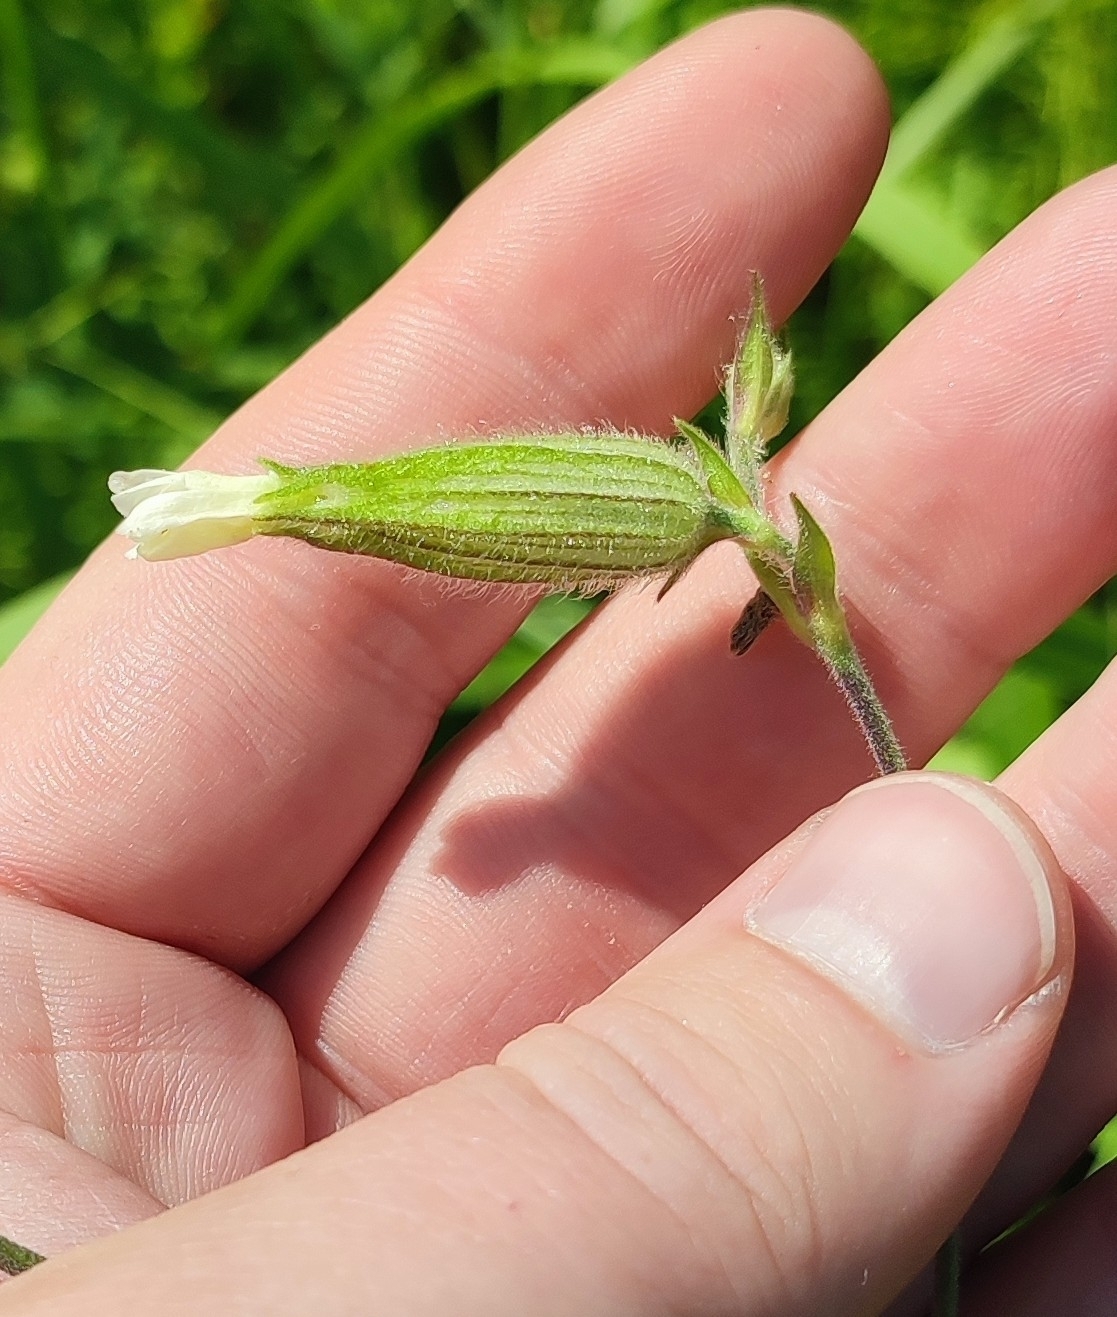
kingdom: Plantae
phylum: Tracheophyta
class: Magnoliopsida
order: Caryophyllales
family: Caryophyllaceae
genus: Silene
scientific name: Silene latifolia
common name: White campion
